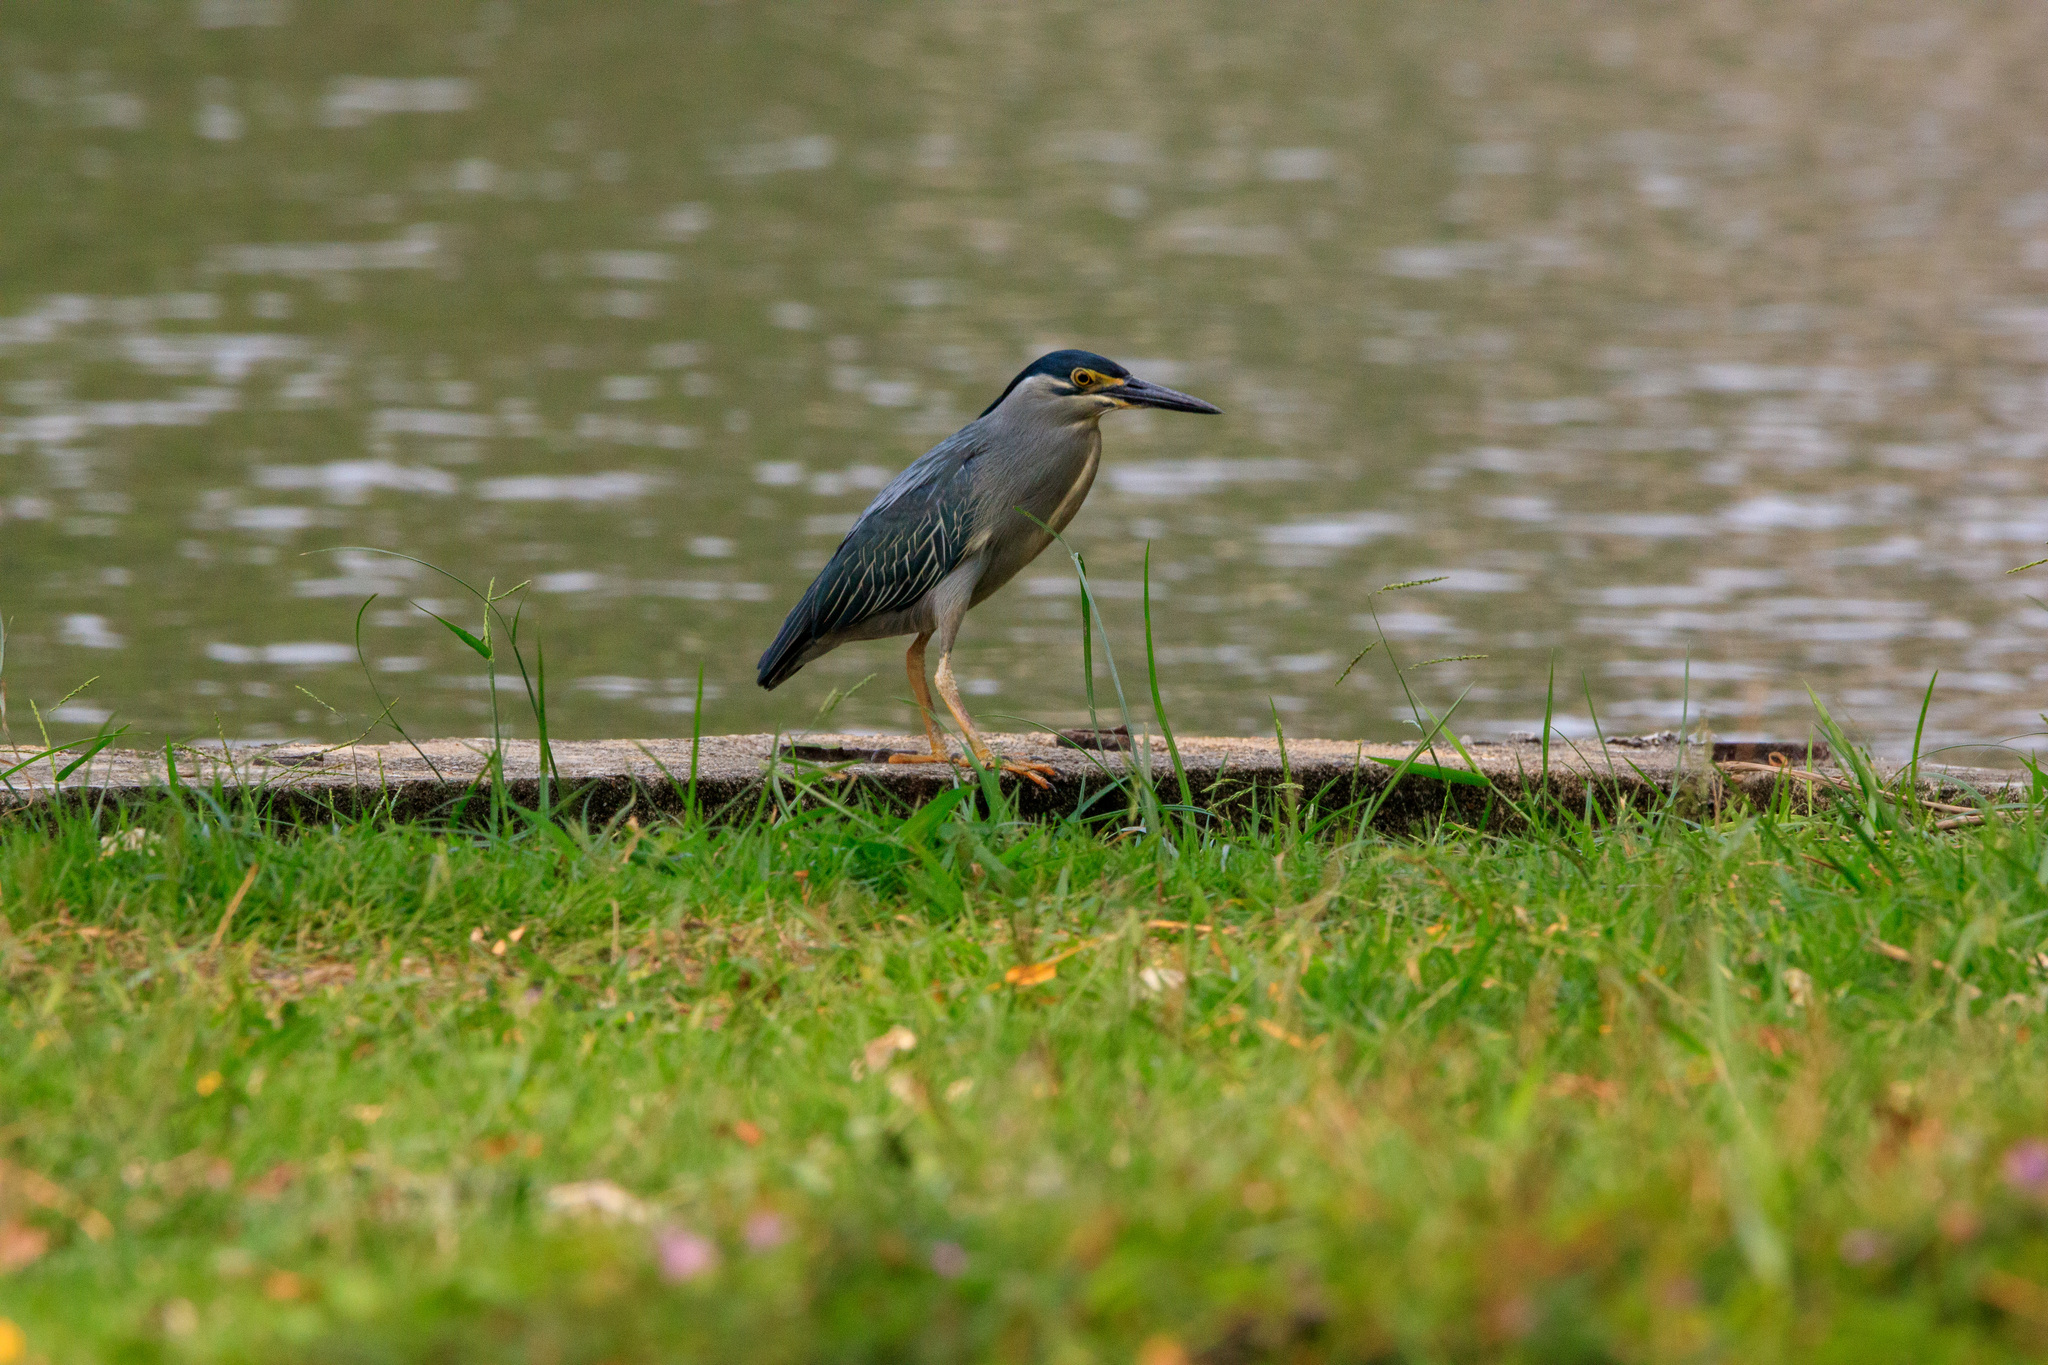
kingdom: Animalia
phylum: Chordata
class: Aves
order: Pelecaniformes
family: Ardeidae
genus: Butorides
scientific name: Butorides striata
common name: Striated heron
